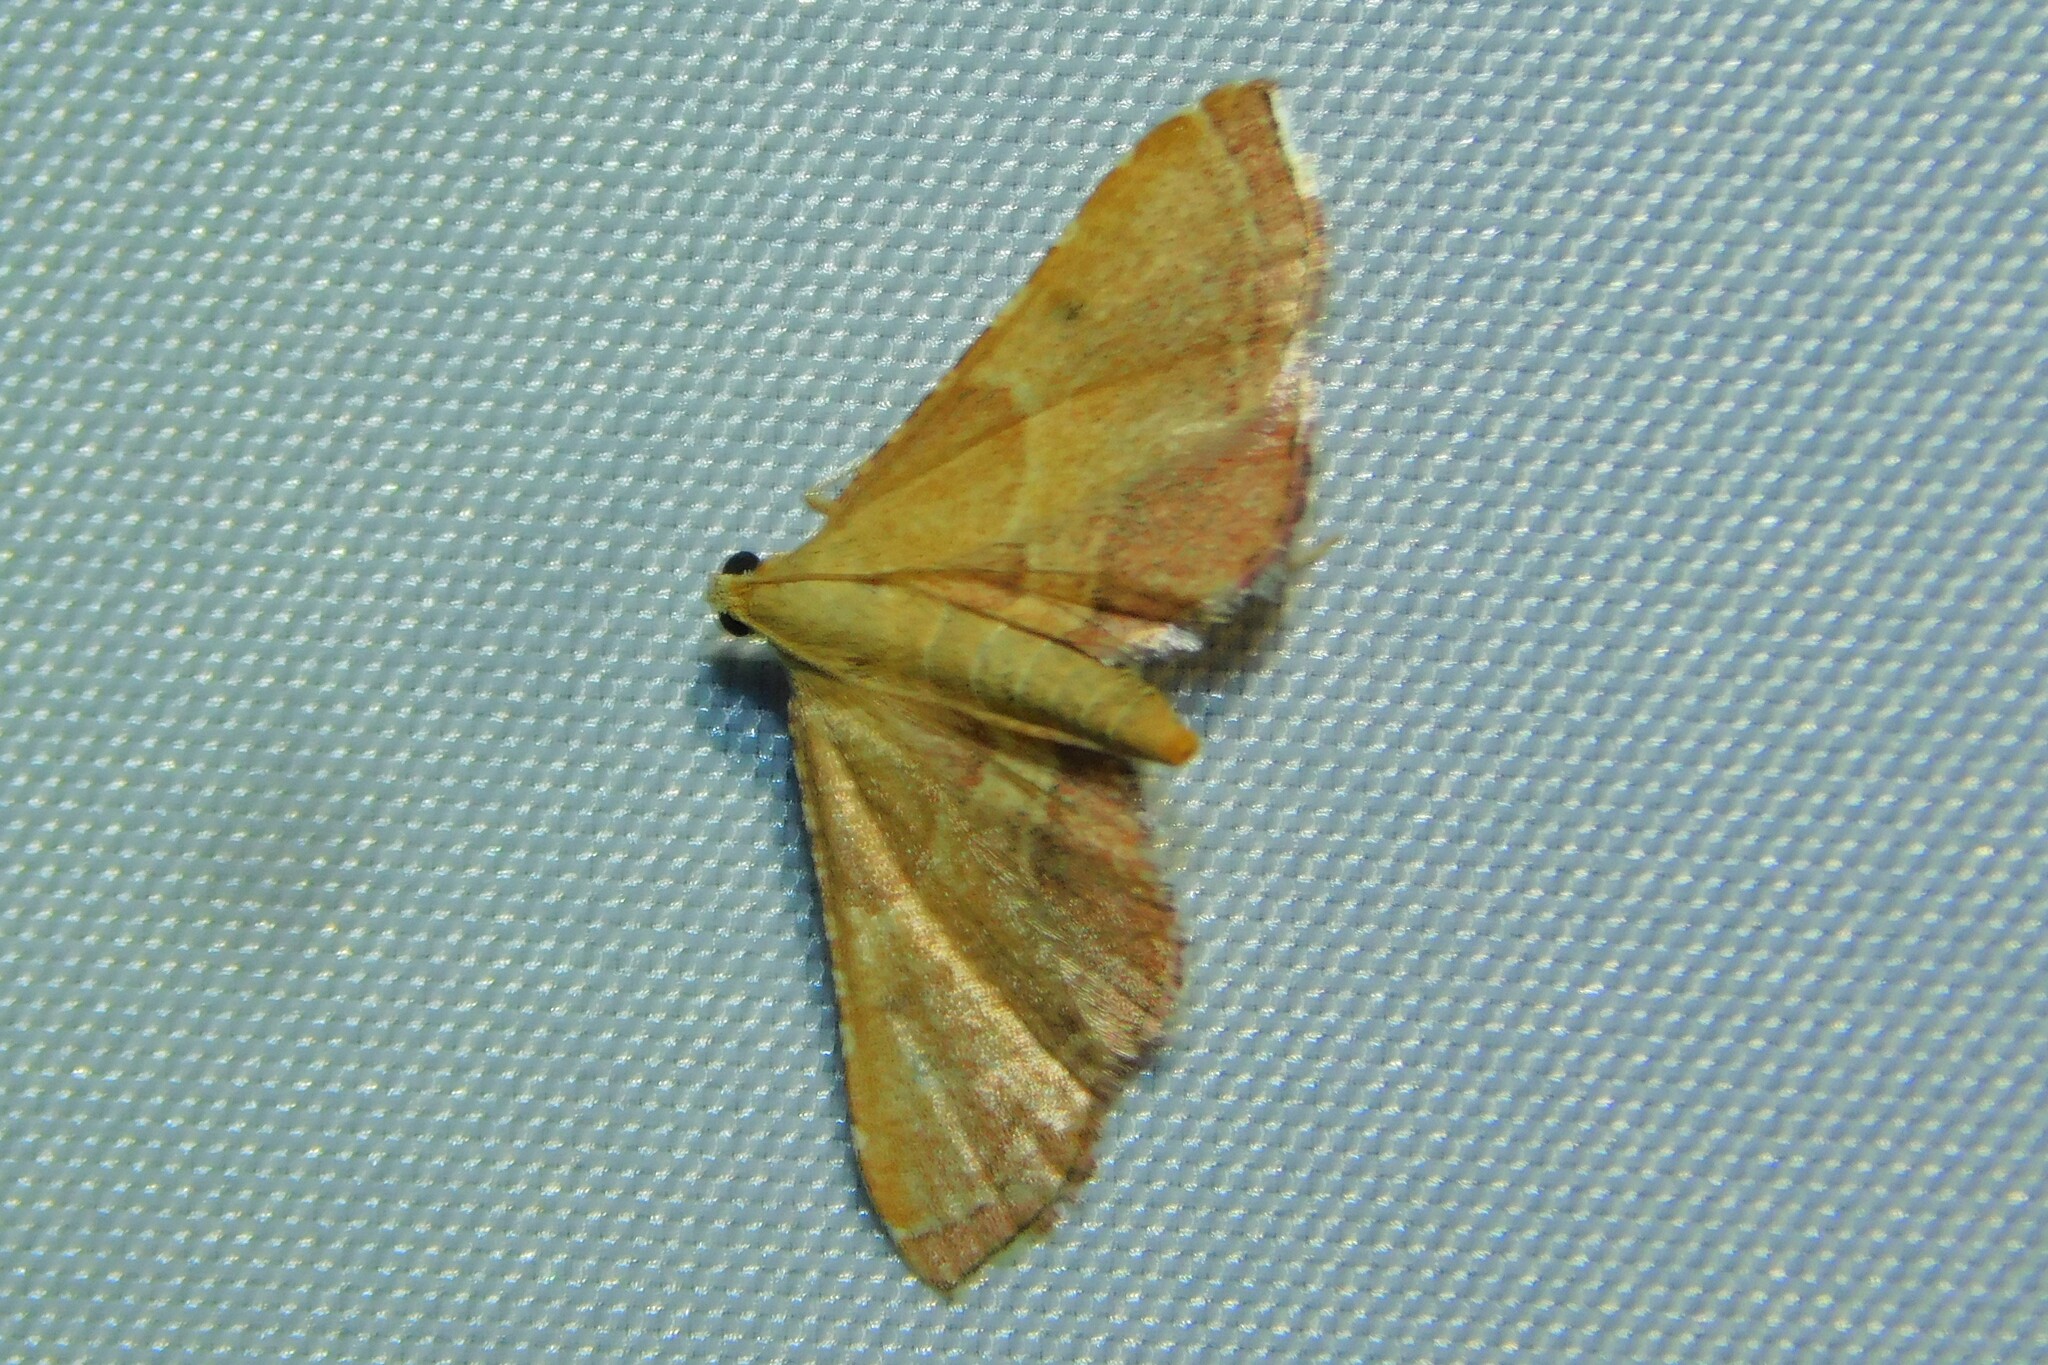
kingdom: Animalia
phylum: Arthropoda
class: Insecta
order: Lepidoptera
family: Pyralidae
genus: Endotricha
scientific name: Endotricha flammealis
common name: Rosy tabby
